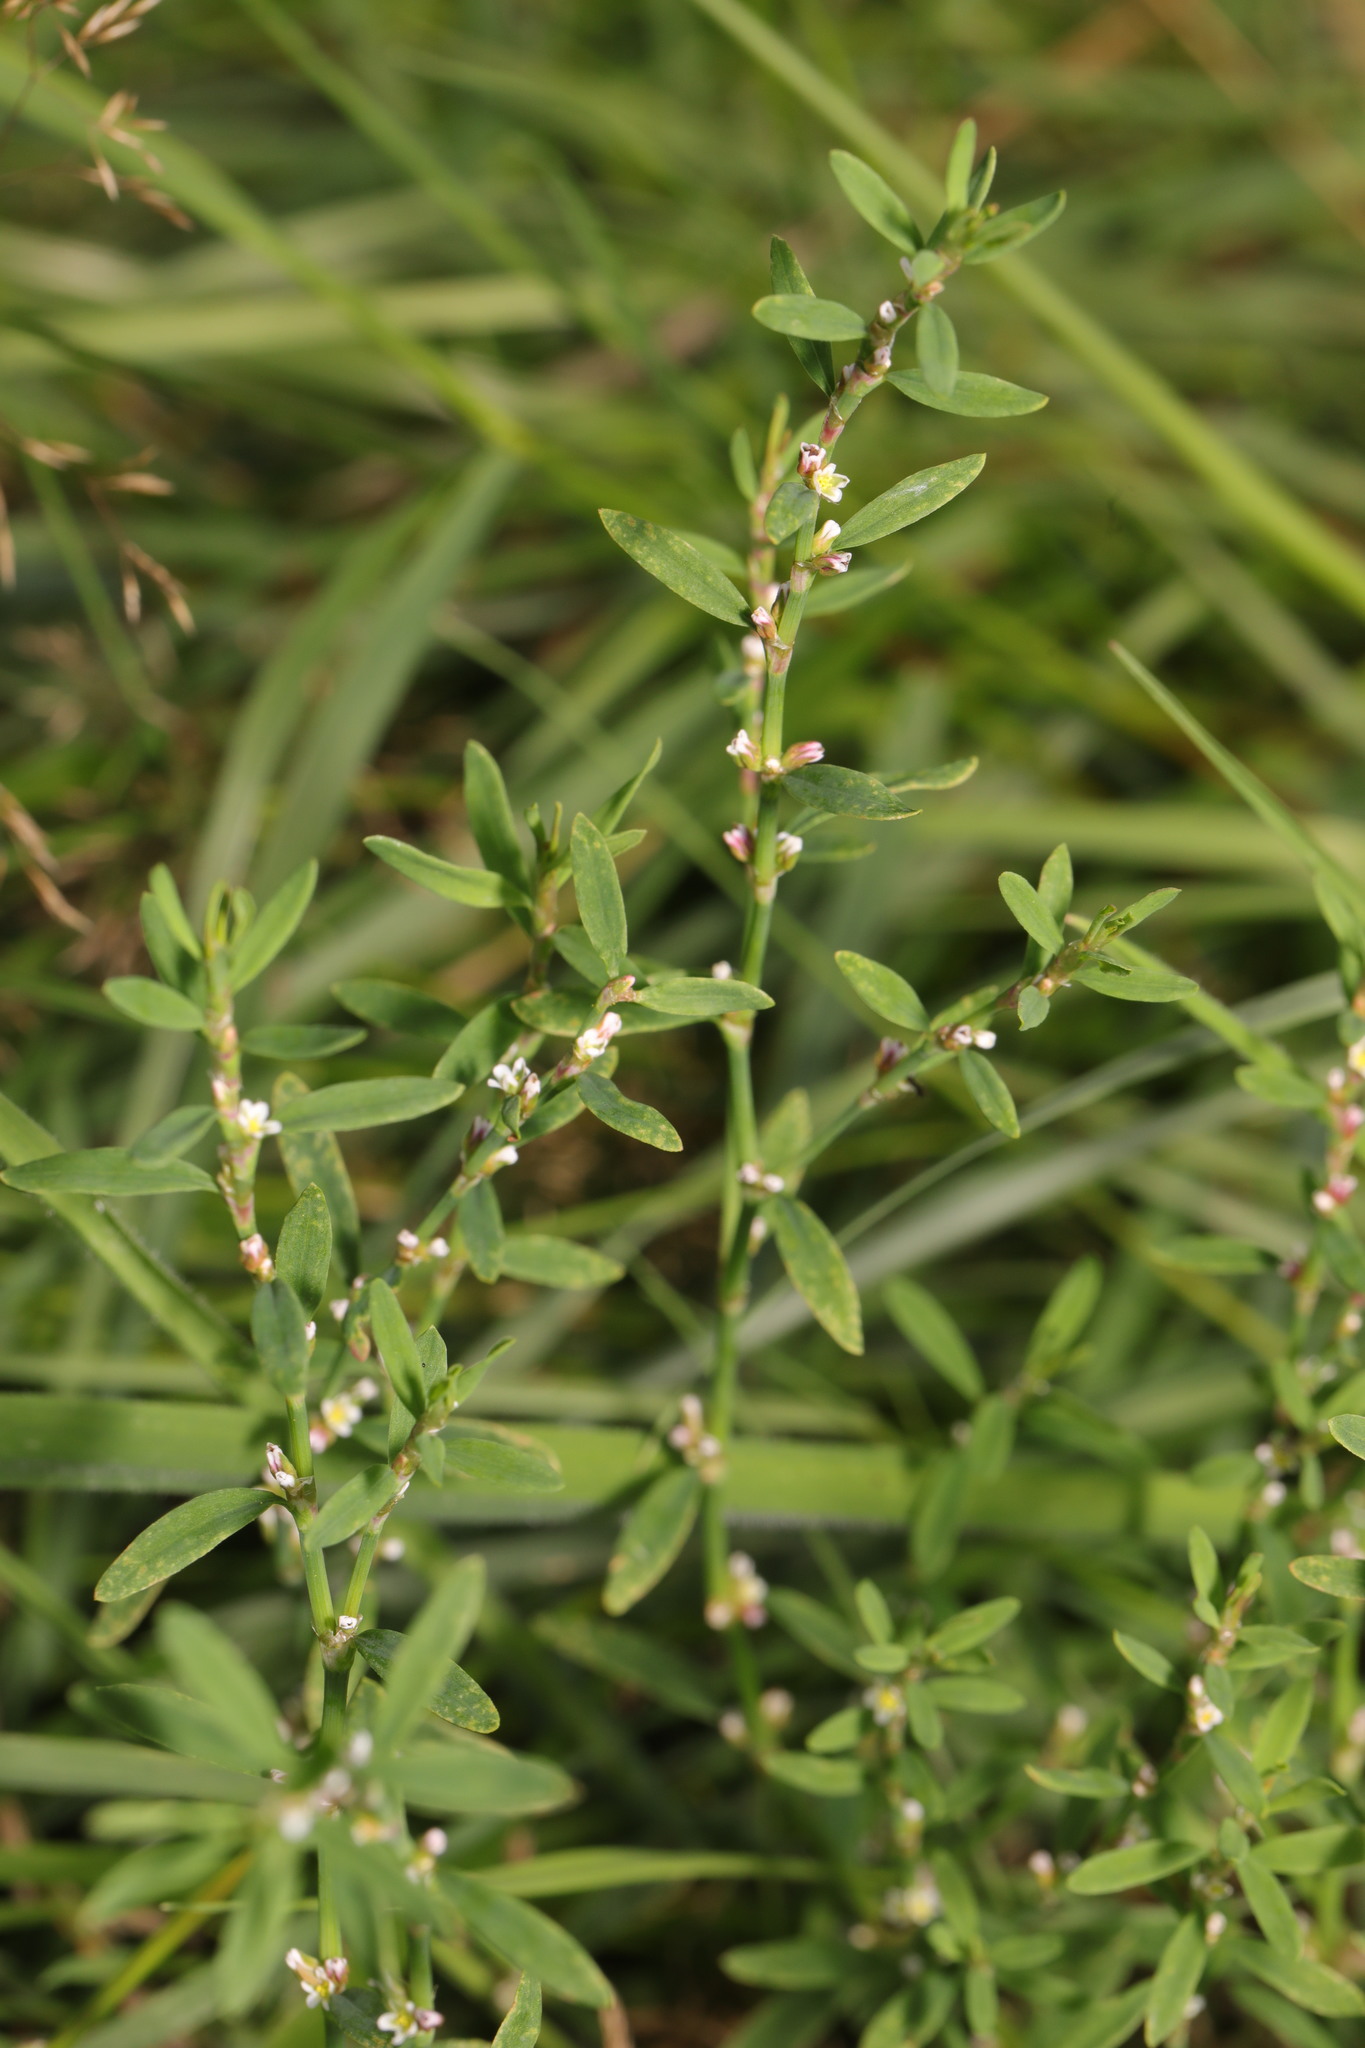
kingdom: Plantae
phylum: Tracheophyta
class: Magnoliopsida
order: Caryophyllales
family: Polygonaceae
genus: Polygonum
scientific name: Polygonum aviculare
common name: Prostrate knotweed
